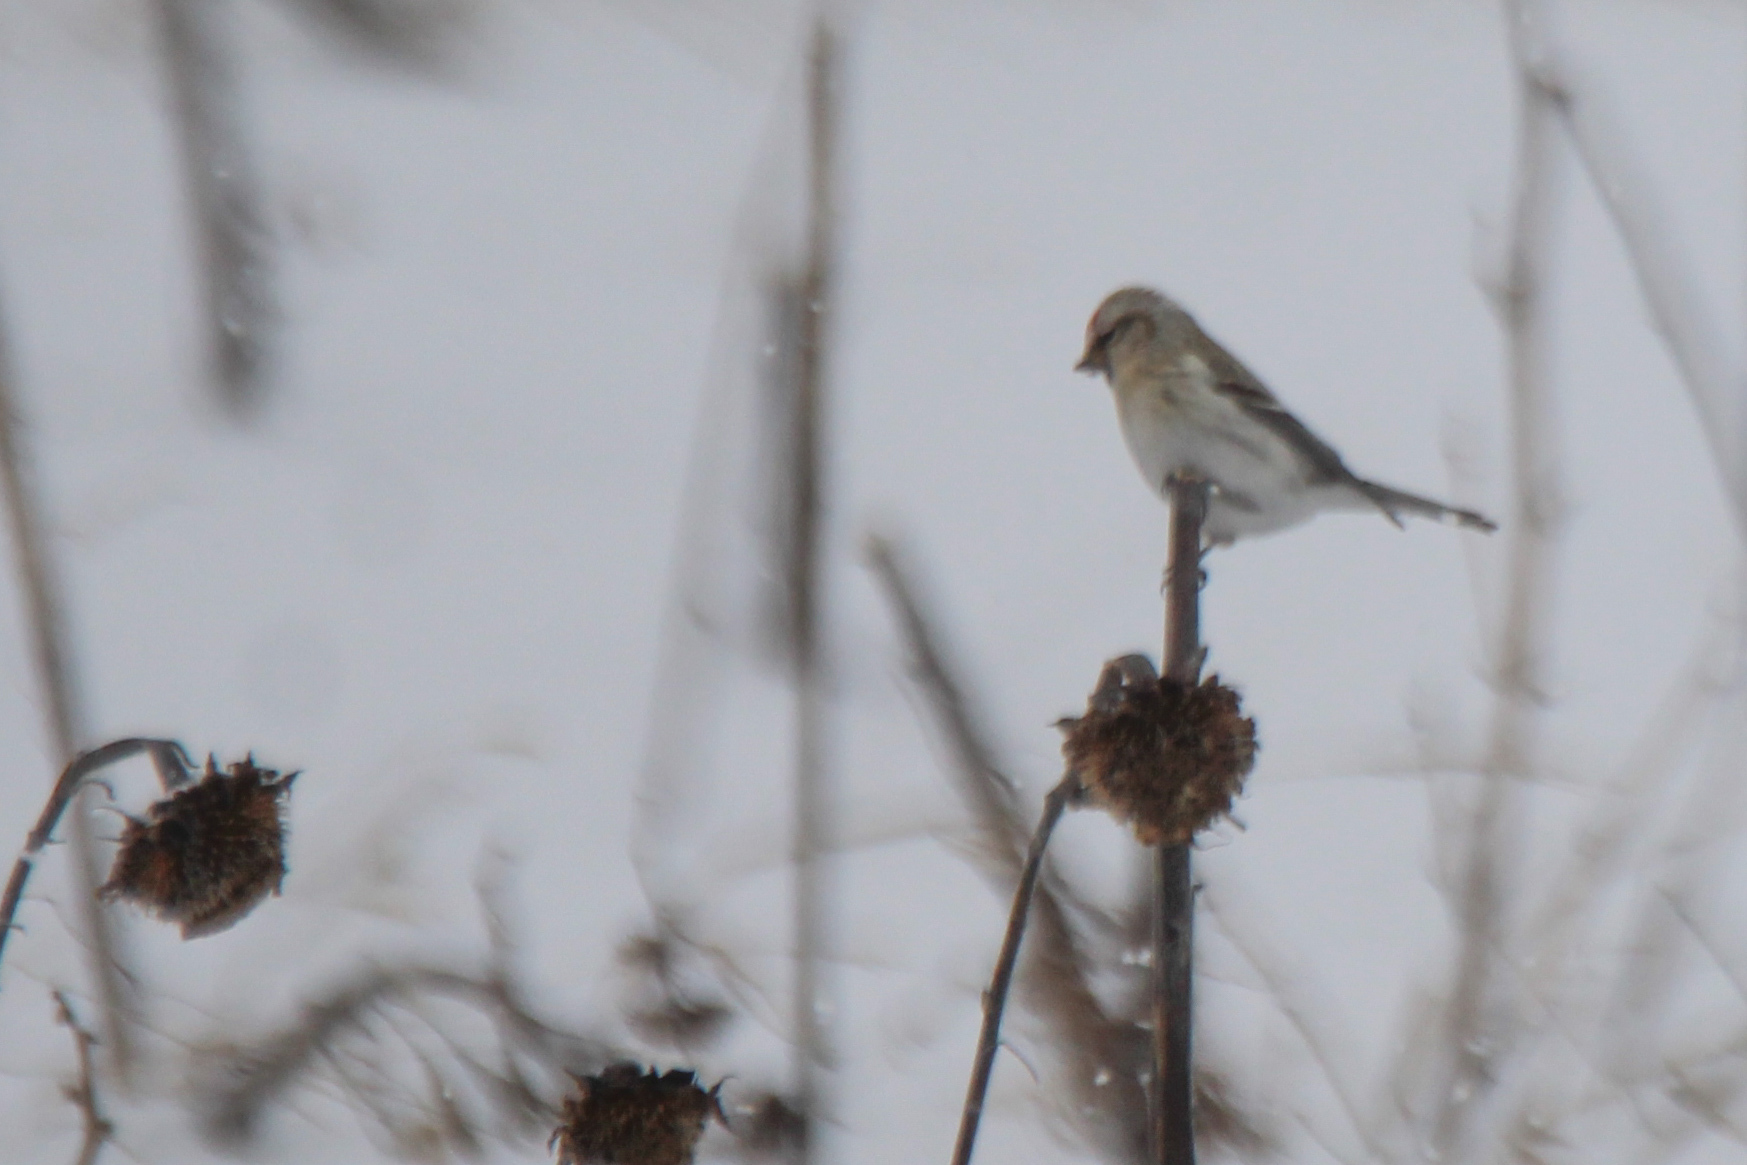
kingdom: Animalia
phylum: Chordata
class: Aves
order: Passeriformes
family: Fringillidae
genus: Acanthis
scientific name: Acanthis hornemanni
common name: Arctic redpoll
